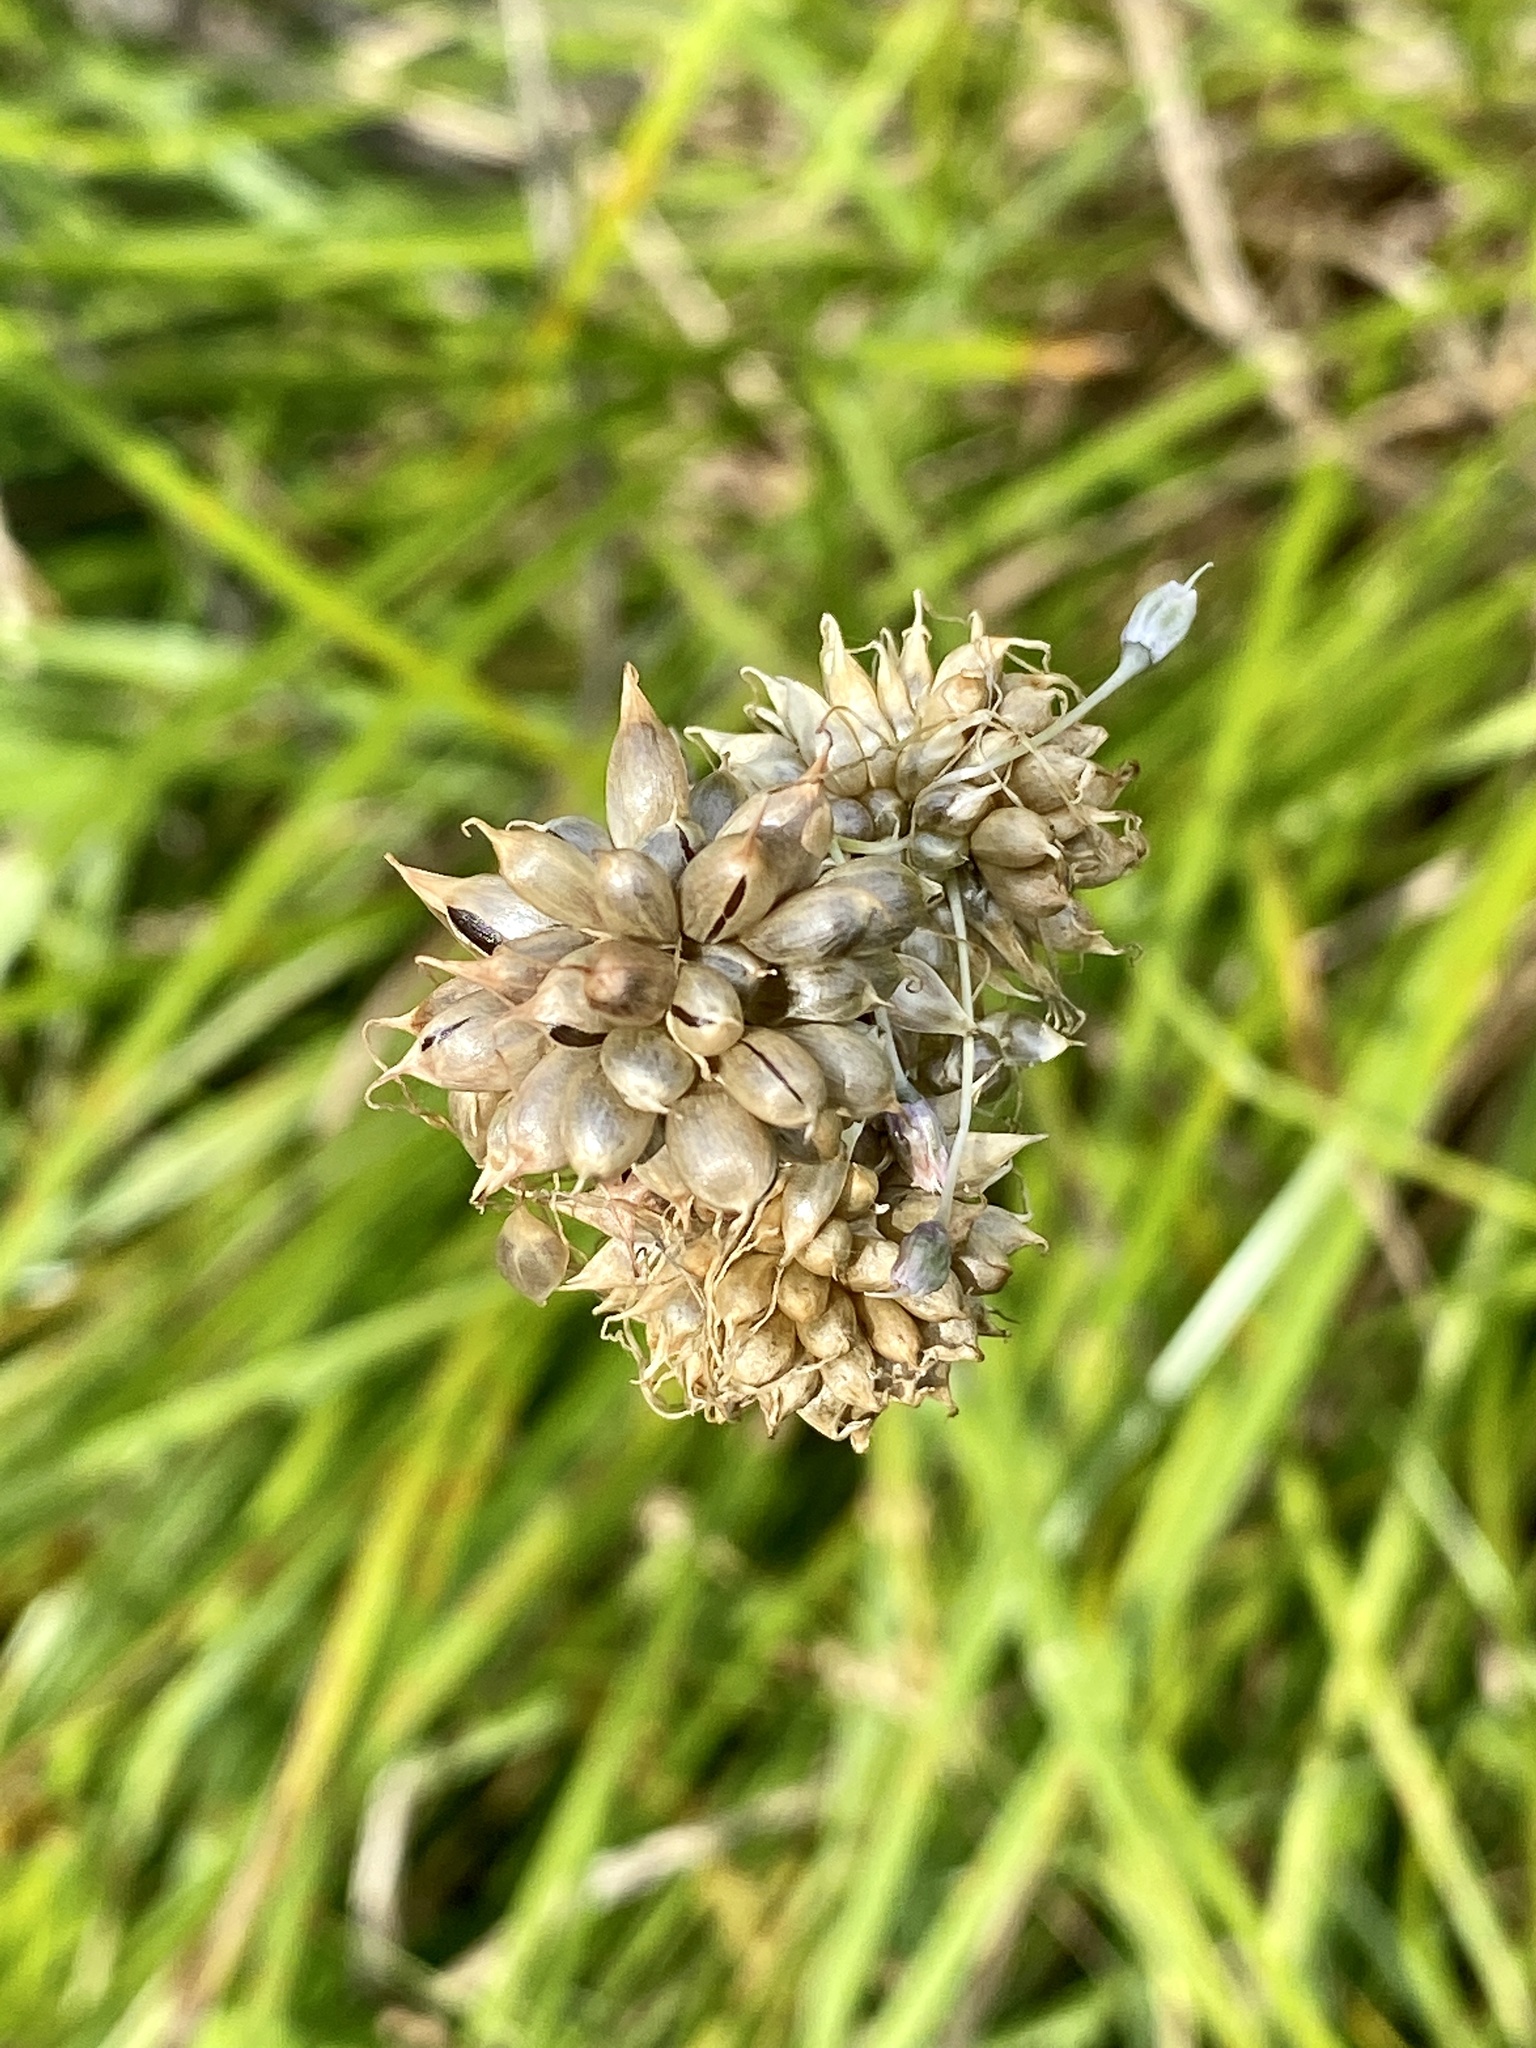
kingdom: Plantae
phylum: Tracheophyta
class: Liliopsida
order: Asparagales
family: Amaryllidaceae
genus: Allium
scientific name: Allium vineale
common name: Crow garlic
